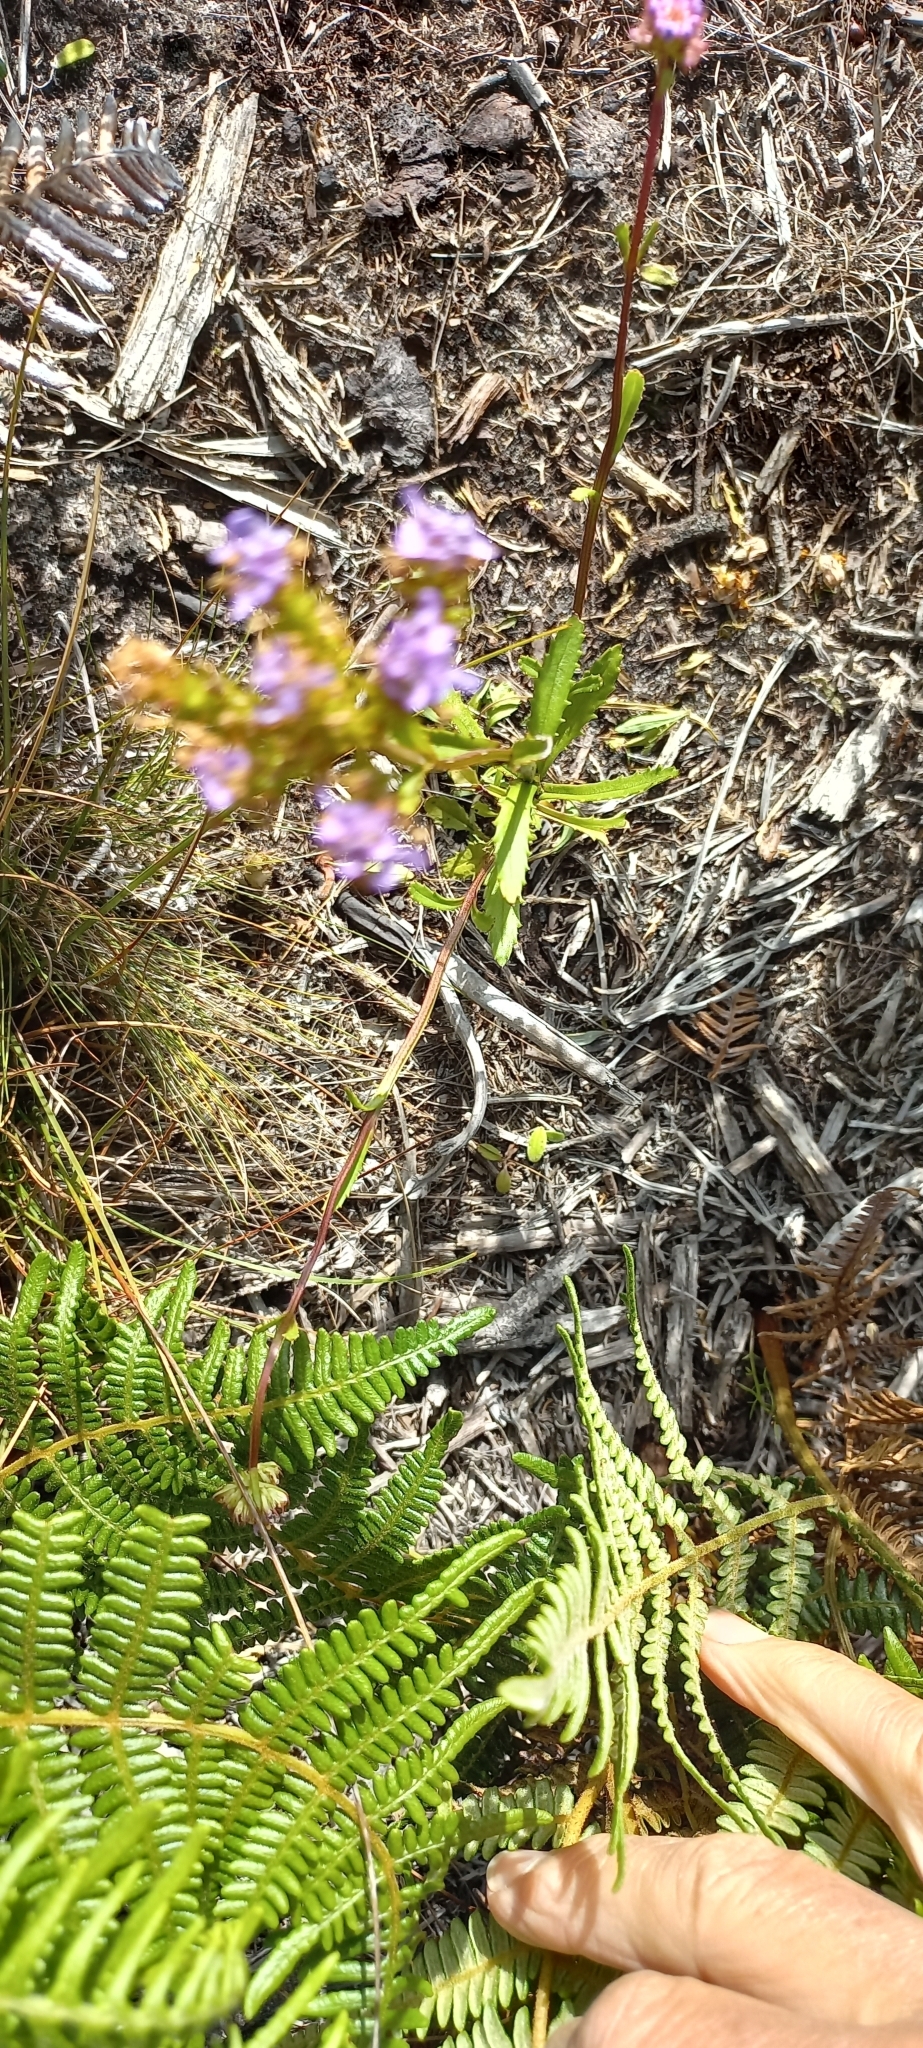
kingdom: Plantae
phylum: Tracheophyta
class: Magnoliopsida
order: Lamiales
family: Scrophulariaceae
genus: Pseudoselago
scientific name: Pseudoselago verbenacea
